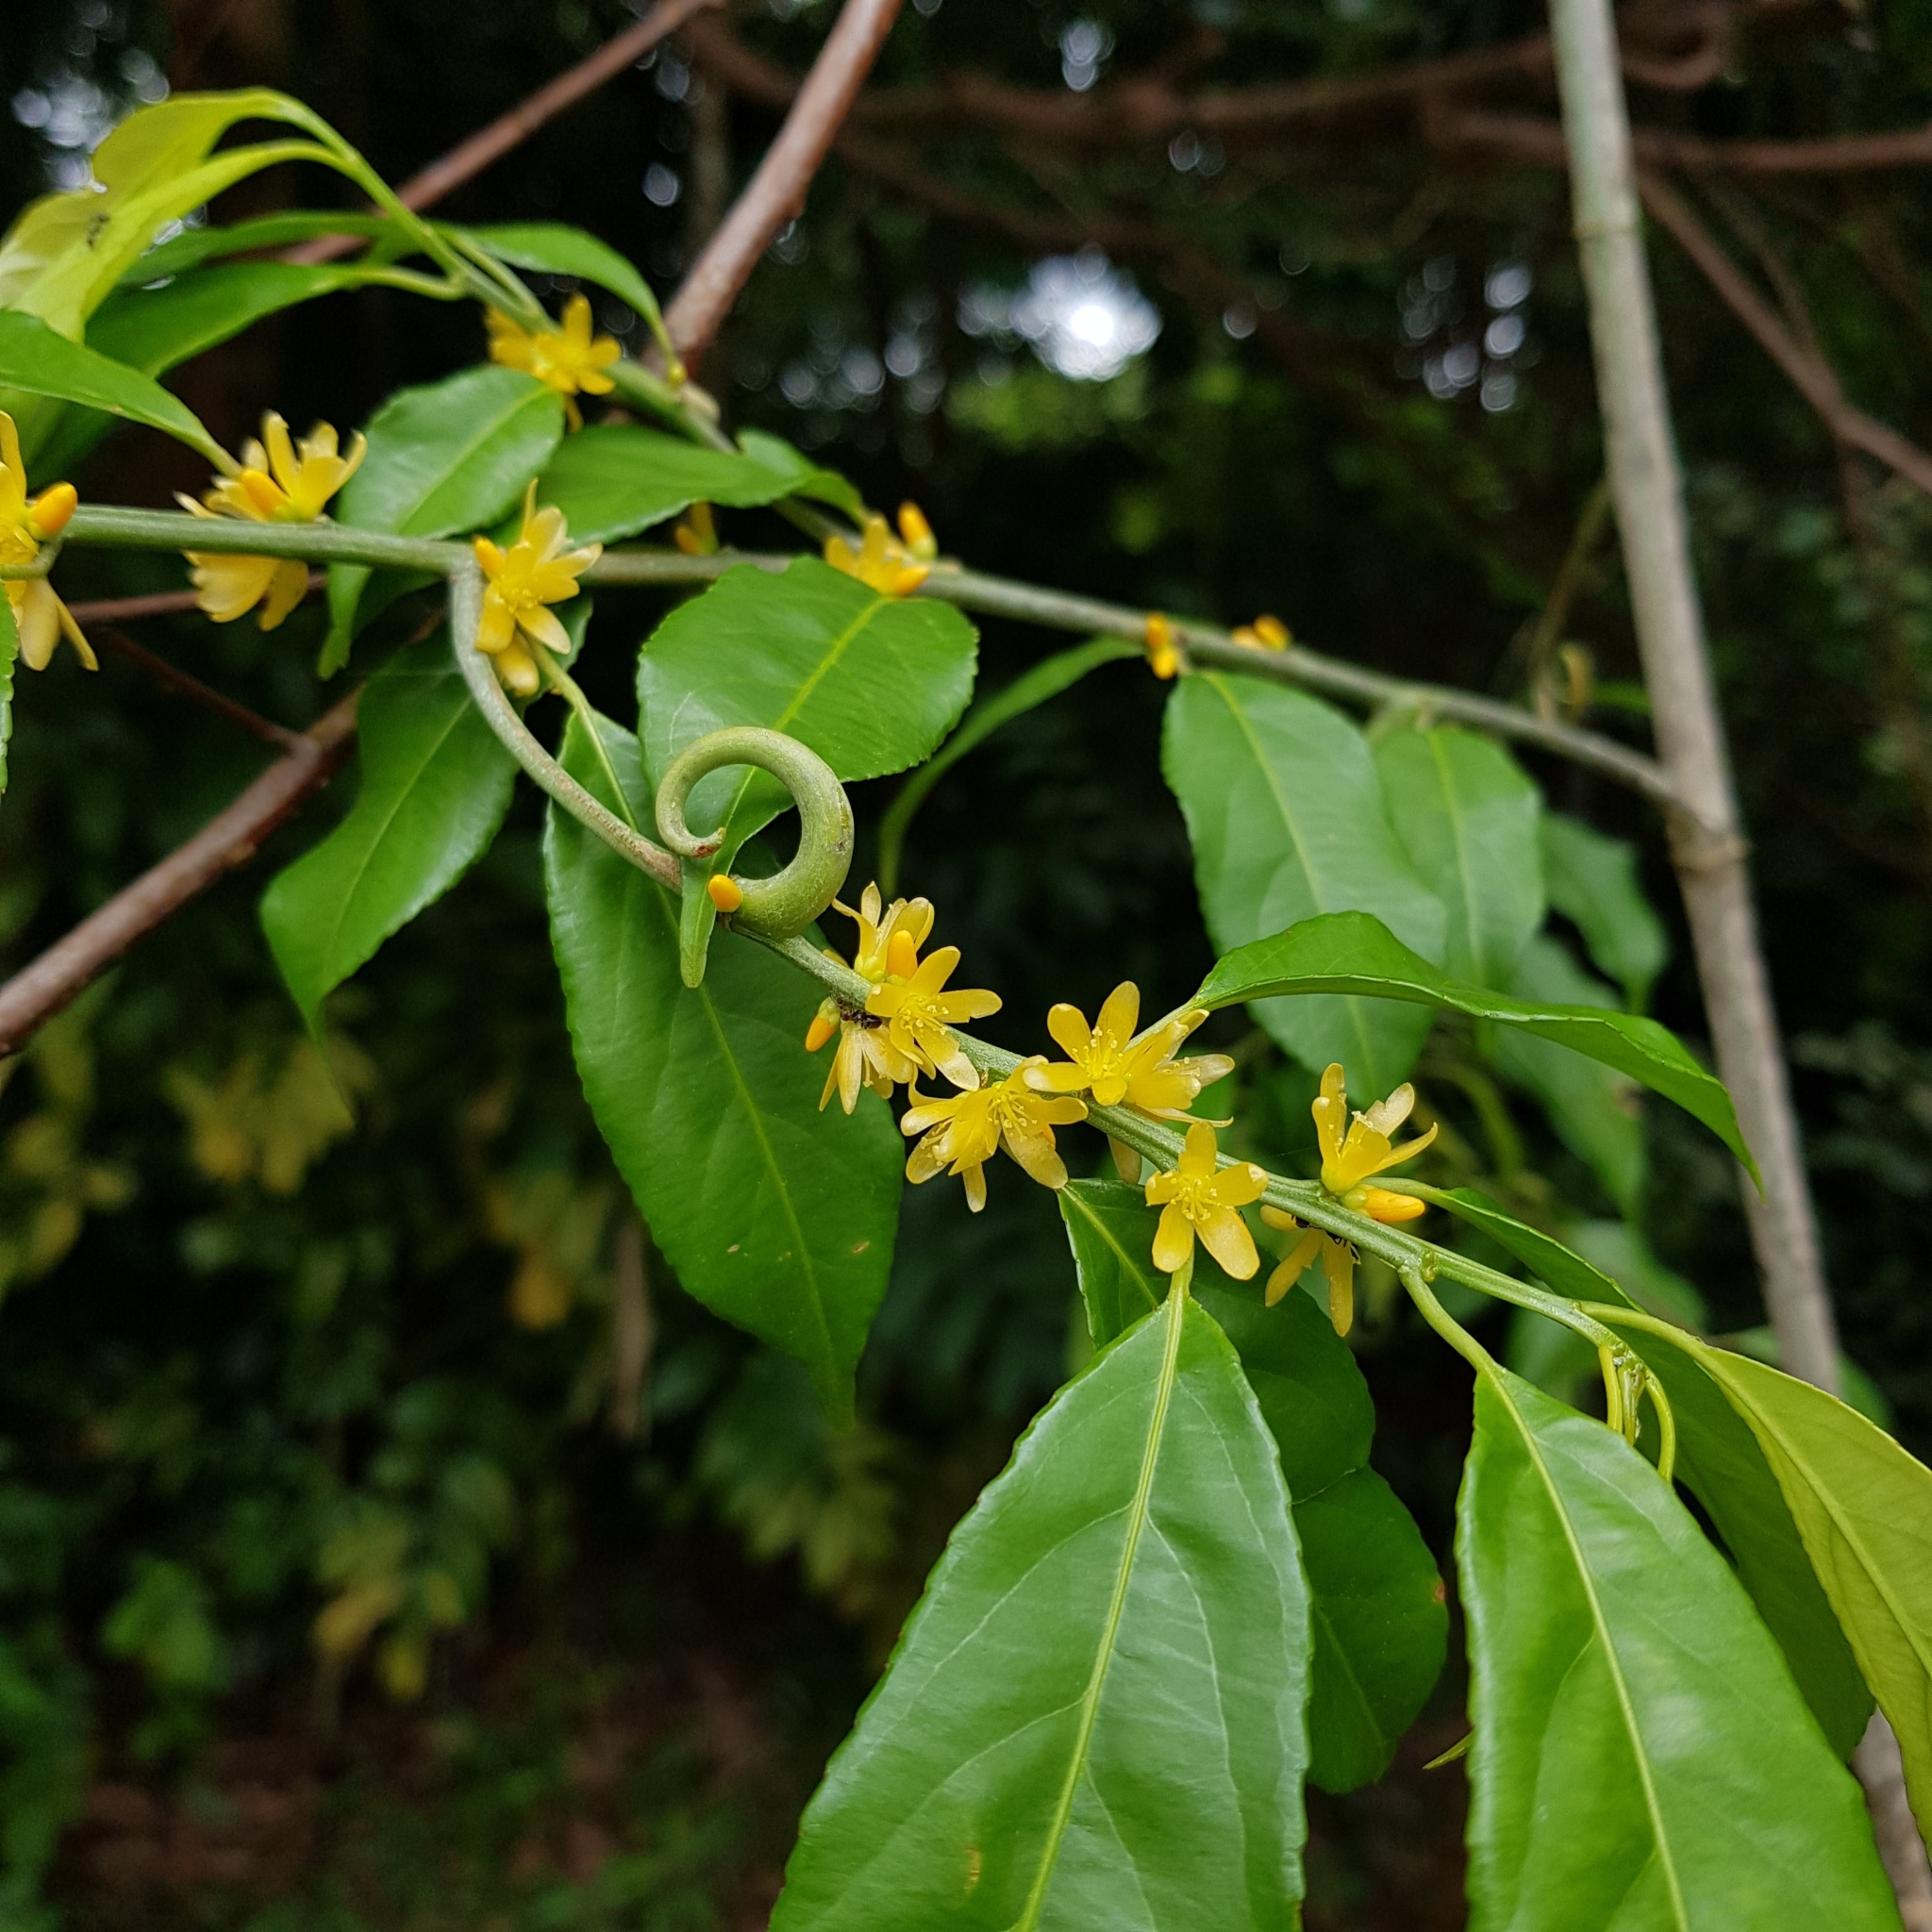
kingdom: Plantae
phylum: Tracheophyta
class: Magnoliopsida
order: Malpighiales
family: Linaceae
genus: Indorouchera
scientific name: Indorouchera griffithiana
